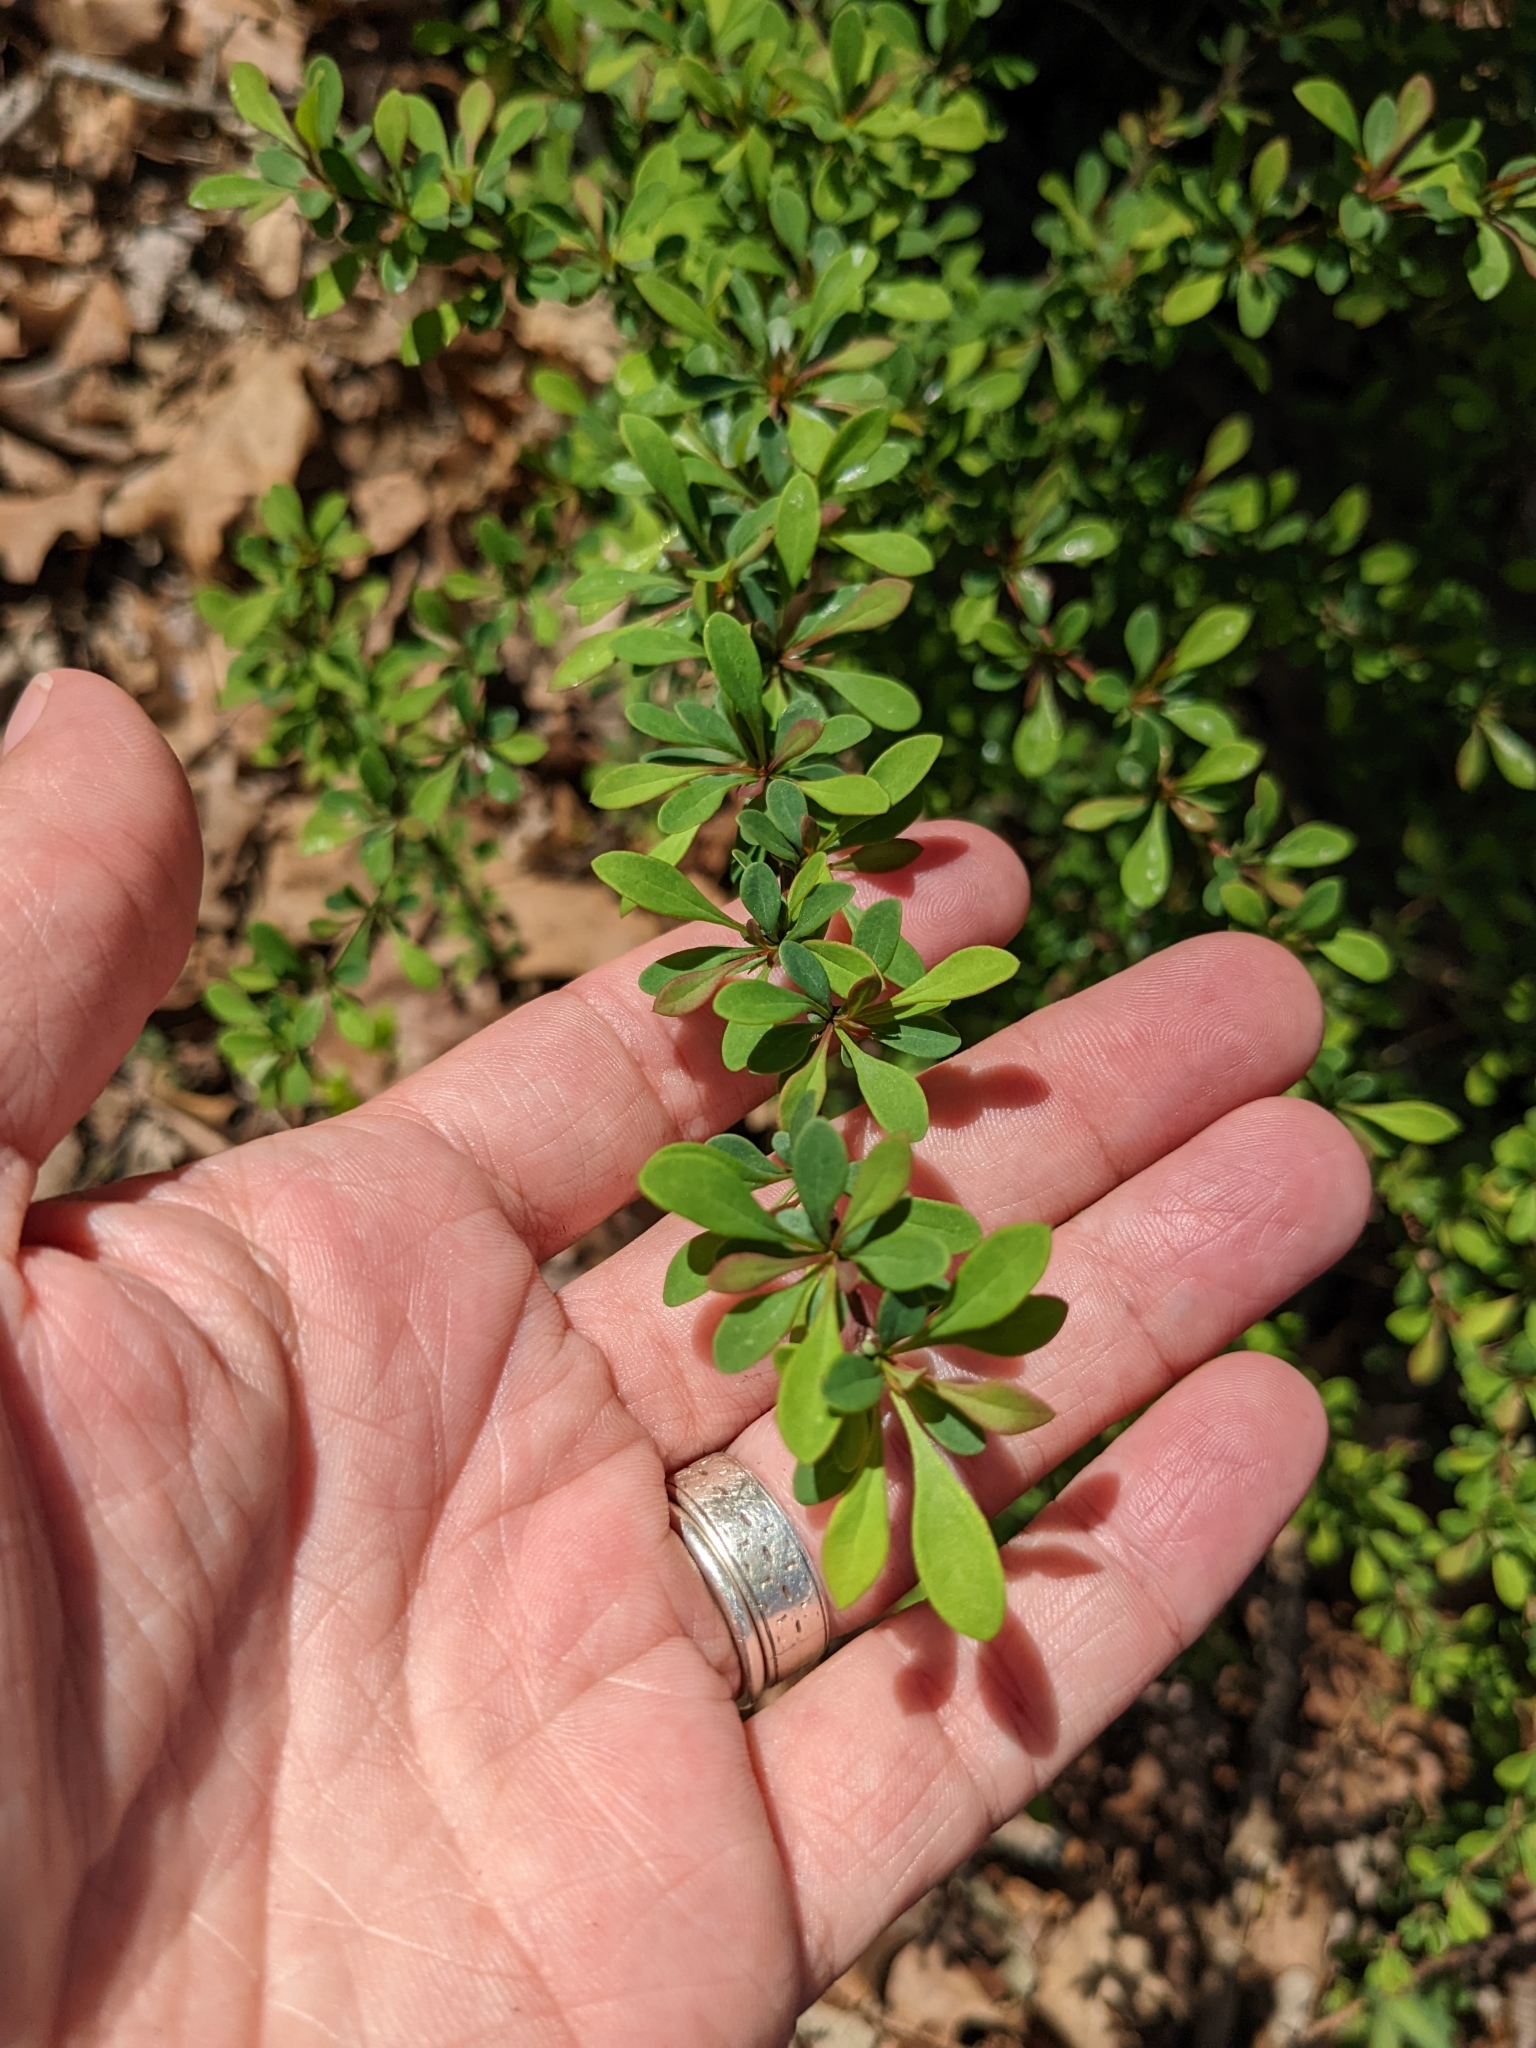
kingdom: Plantae
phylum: Tracheophyta
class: Magnoliopsida
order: Ranunculales
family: Berberidaceae
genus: Berberis
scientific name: Berberis thunbergii
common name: Japanese barberry
